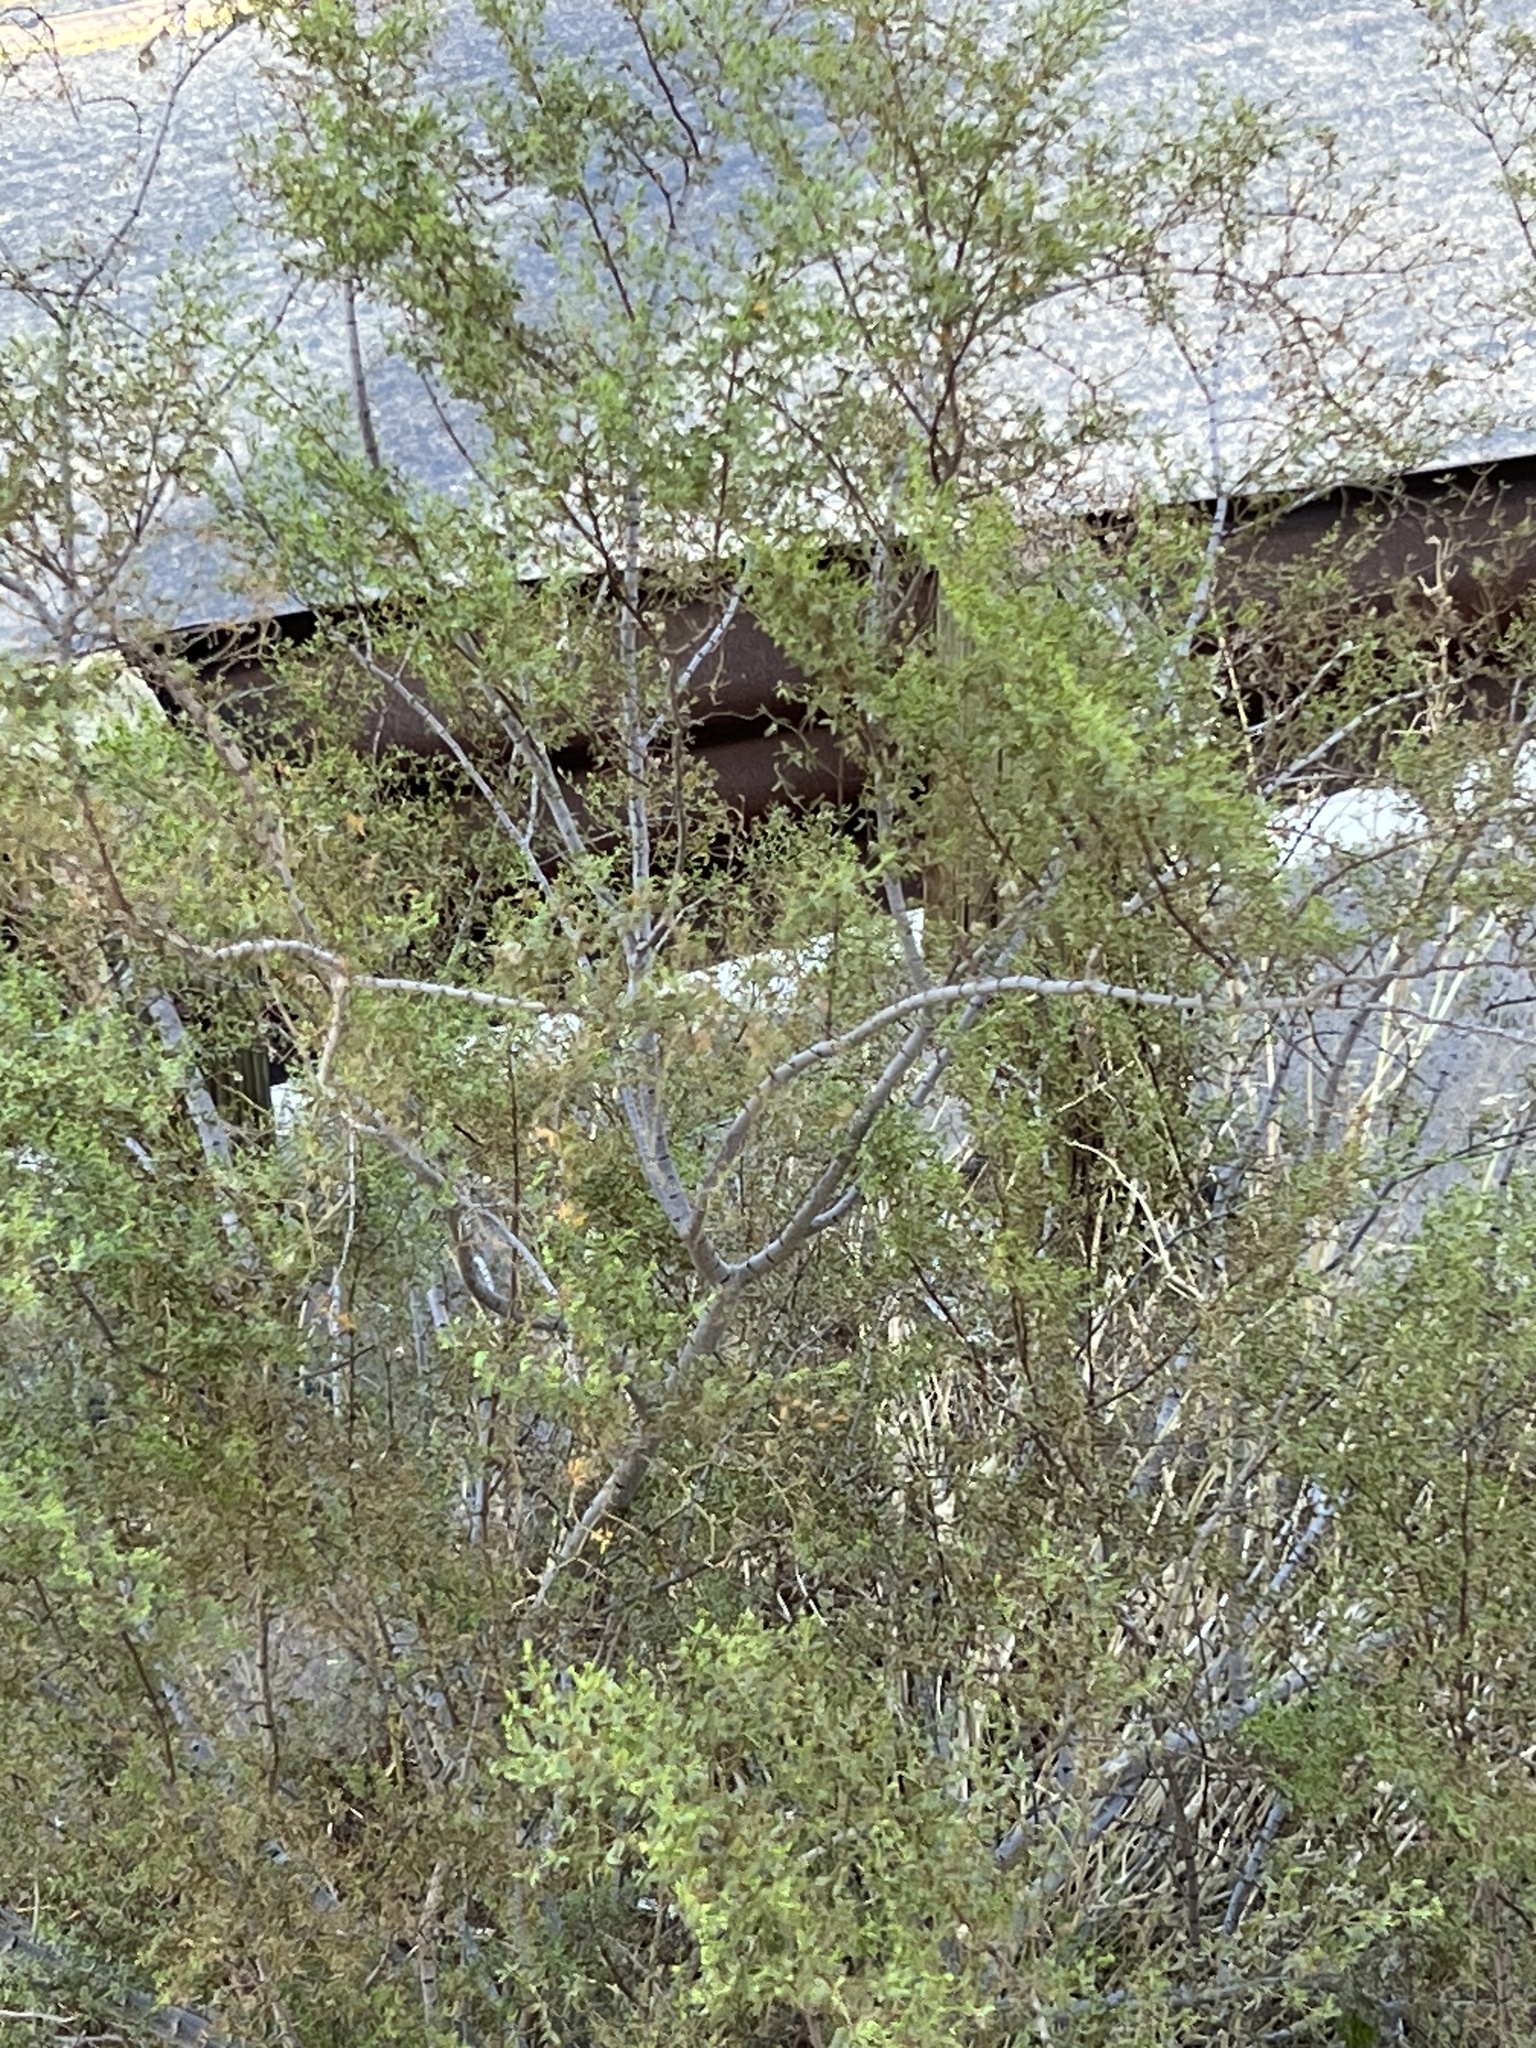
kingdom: Plantae
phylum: Tracheophyta
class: Magnoliopsida
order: Zygophyllales
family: Zygophyllaceae
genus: Larrea
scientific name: Larrea tridentata
